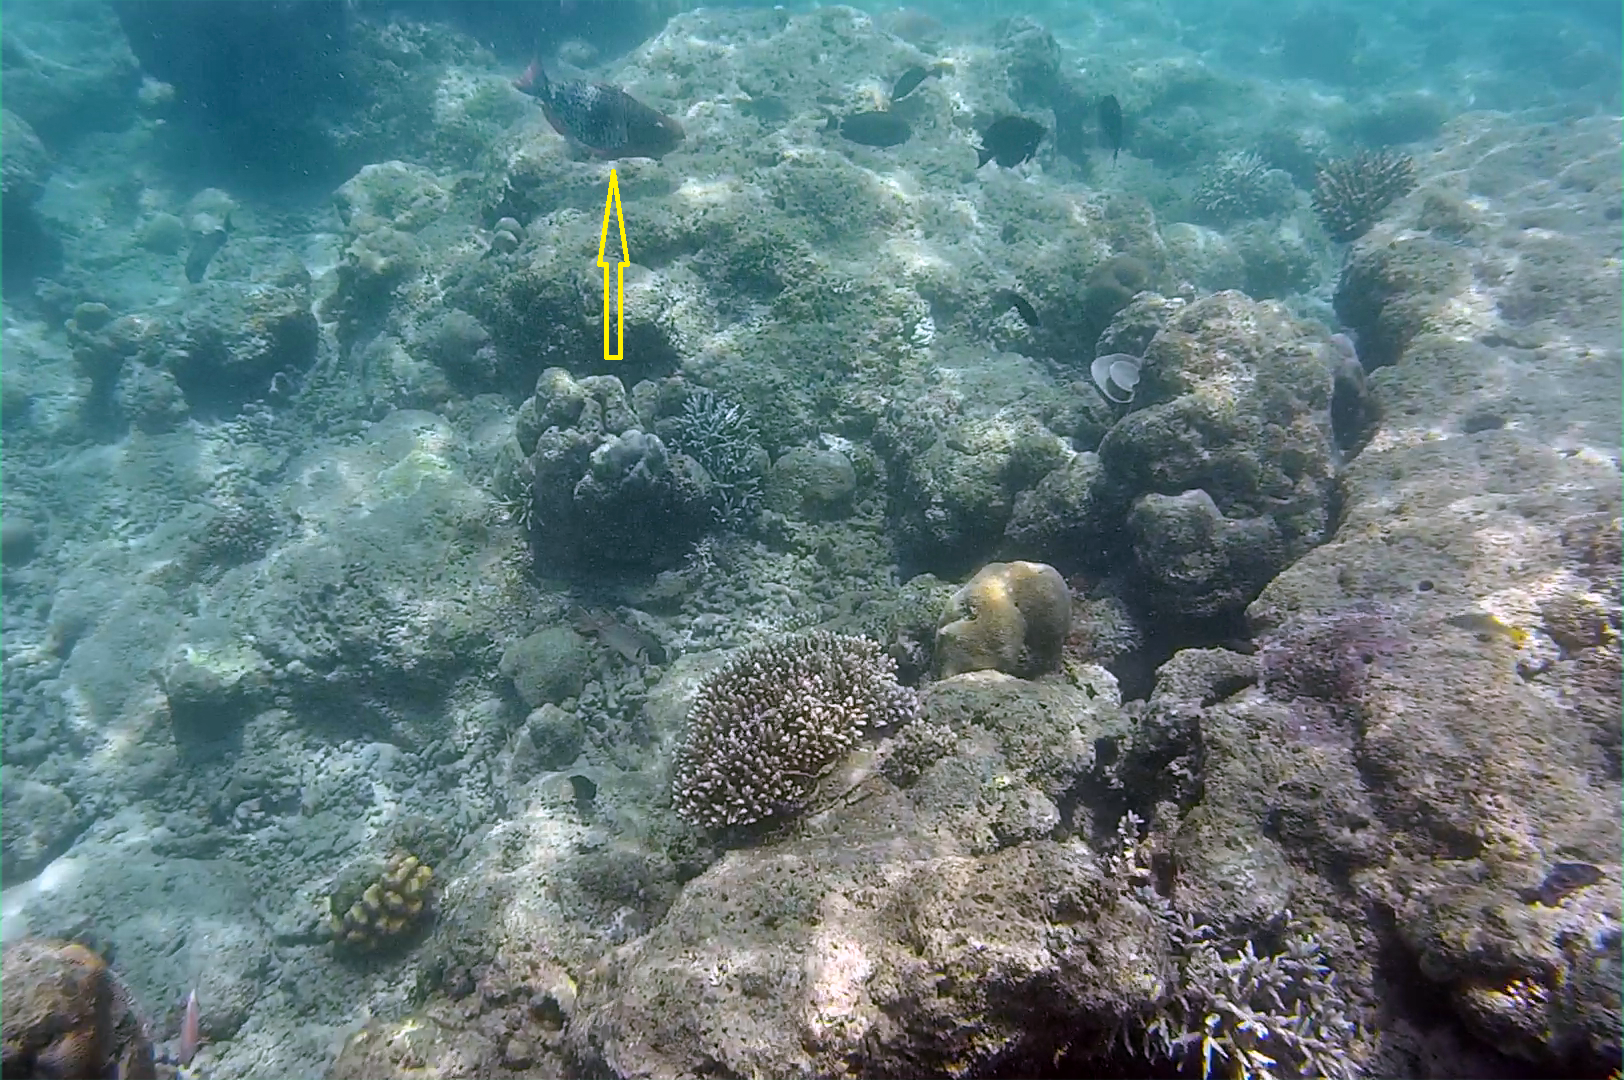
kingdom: Animalia
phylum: Chordata
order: Perciformes
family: Scaridae
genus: Scarus
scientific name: Scarus rubroviolaceus
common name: Ember parrotfish
